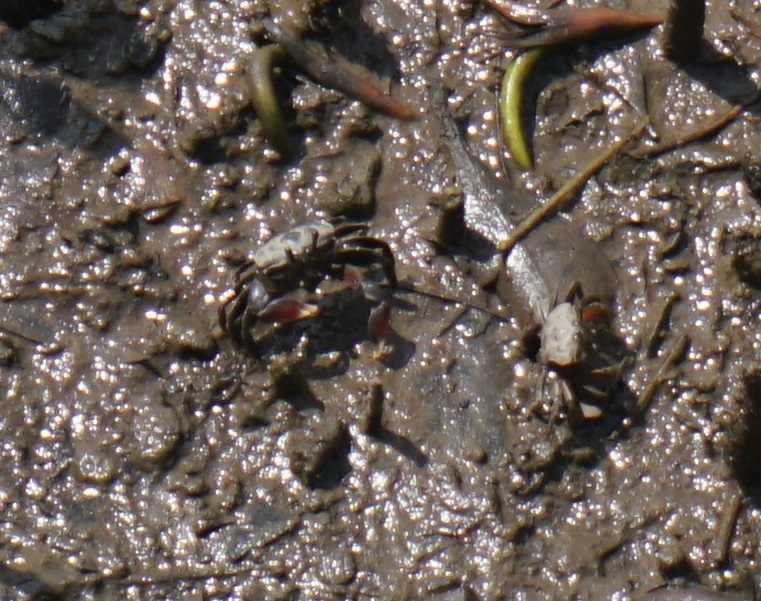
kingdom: Animalia
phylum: Arthropoda
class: Malacostraca
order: Decapoda
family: Heloeciidae
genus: Heloecius
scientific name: Heloecius cordiformis
